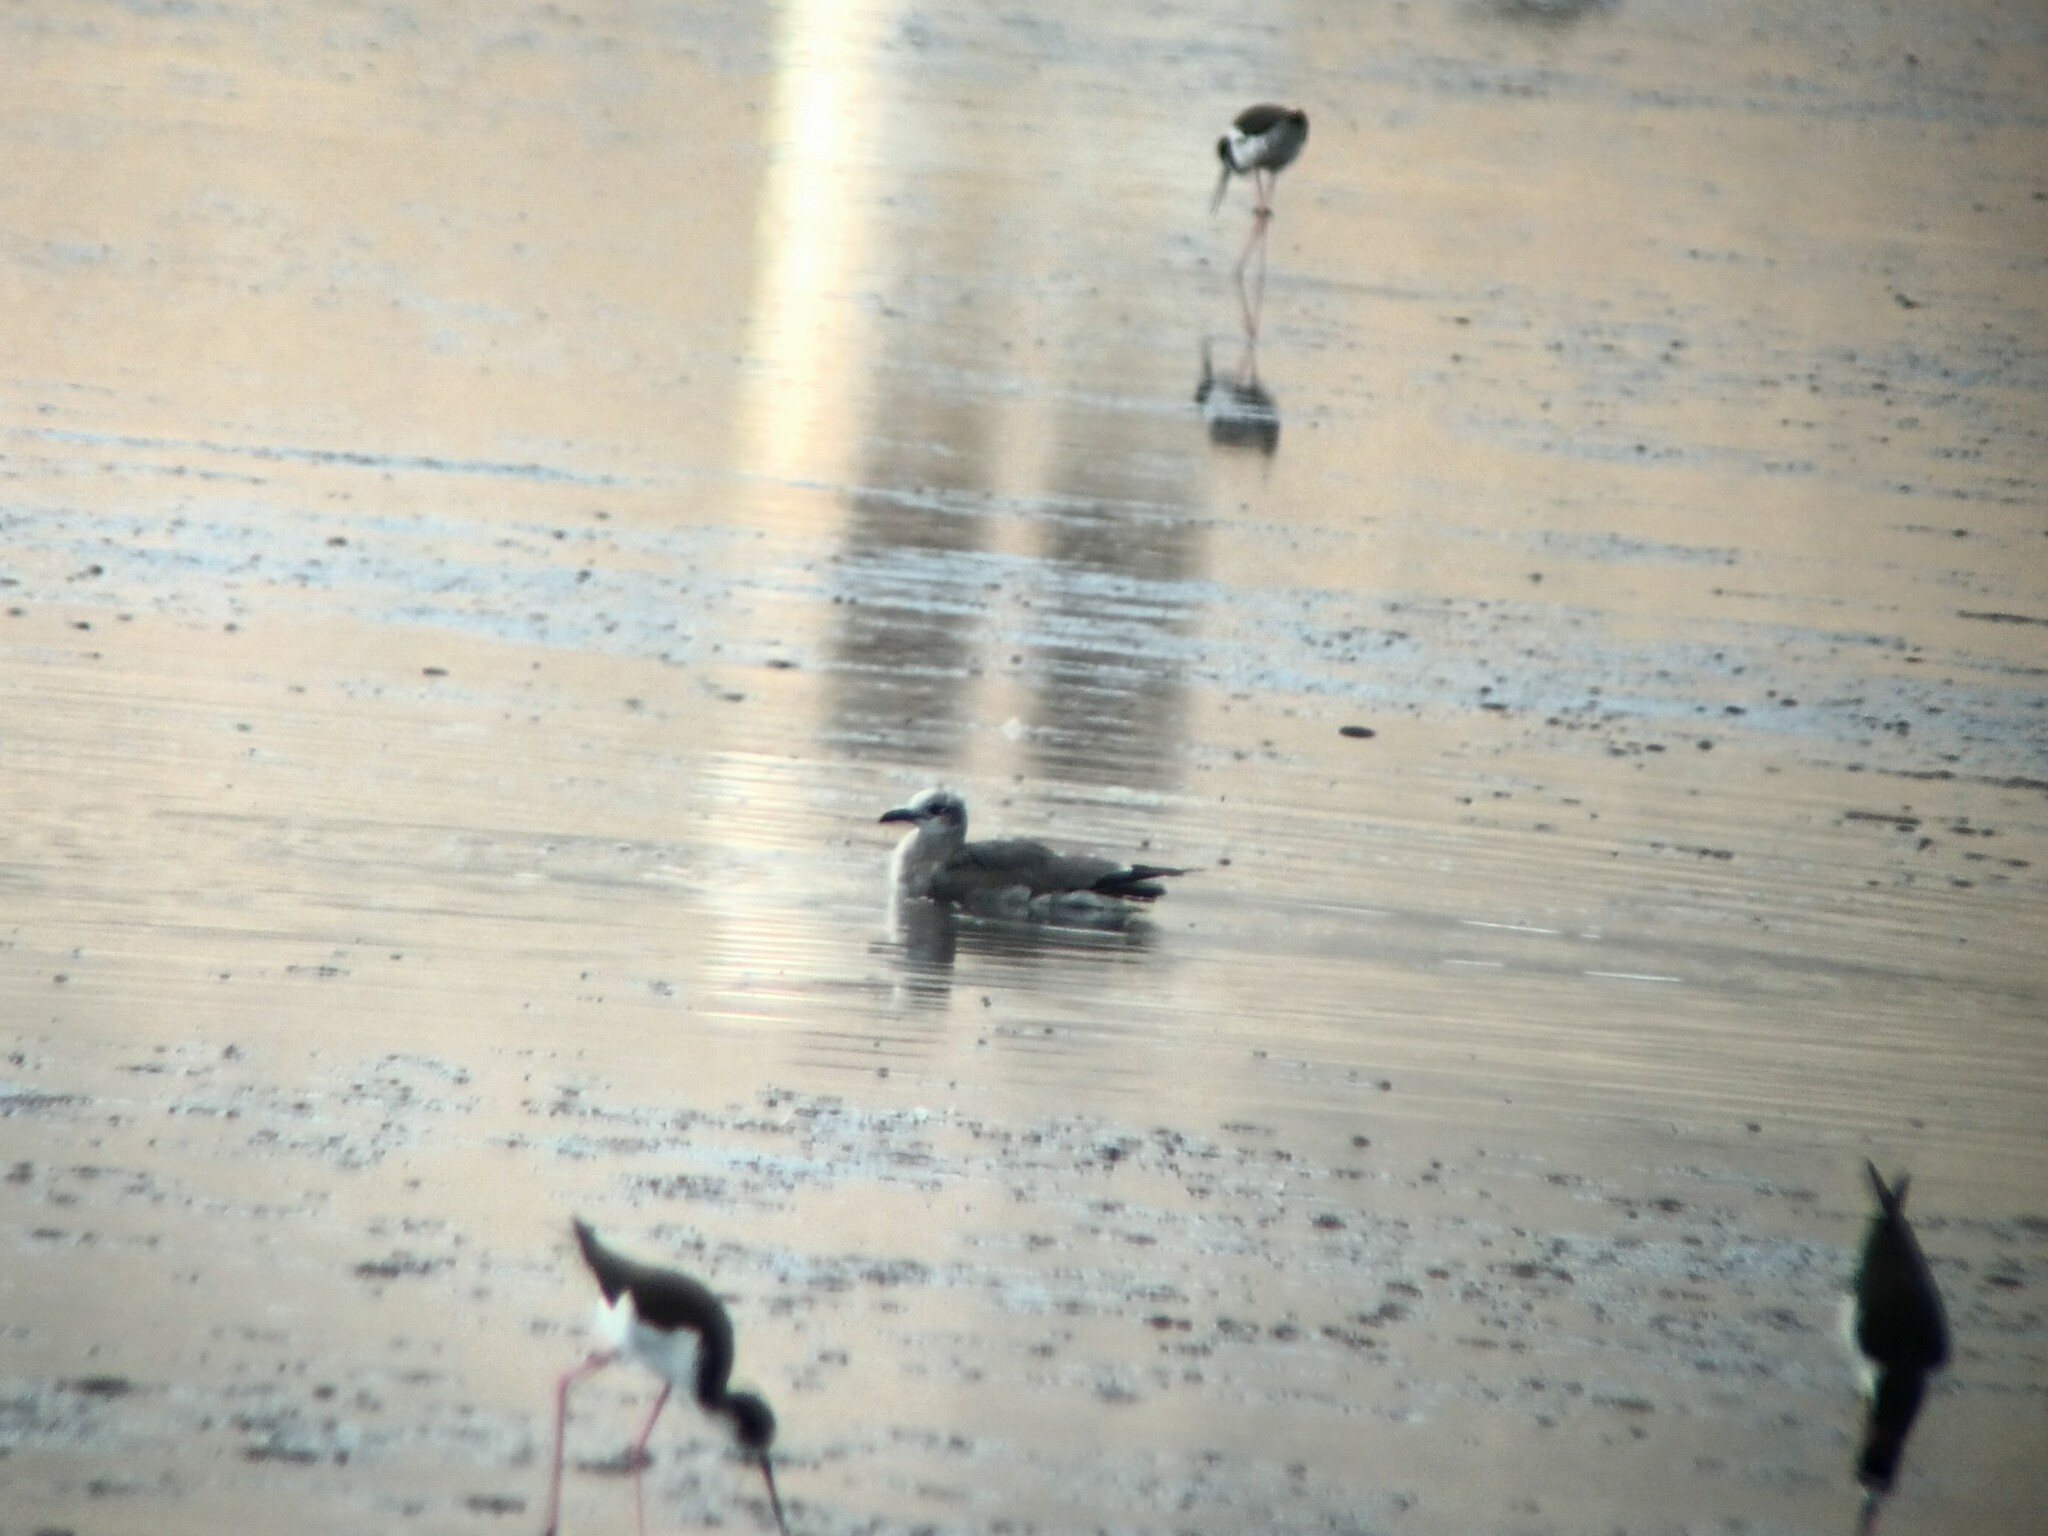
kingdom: Animalia
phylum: Chordata
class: Aves
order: Charadriiformes
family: Laridae
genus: Leucophaeus
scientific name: Leucophaeus atricilla
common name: Laughing gull
